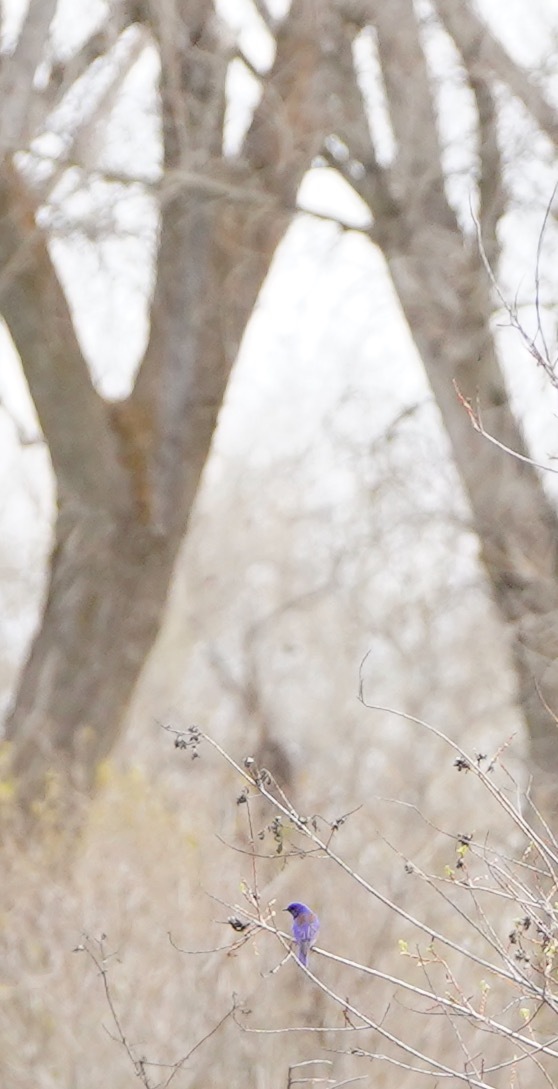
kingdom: Animalia
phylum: Chordata
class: Aves
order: Passeriformes
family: Turdidae
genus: Sialia
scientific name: Sialia mexicana
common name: Western bluebird
